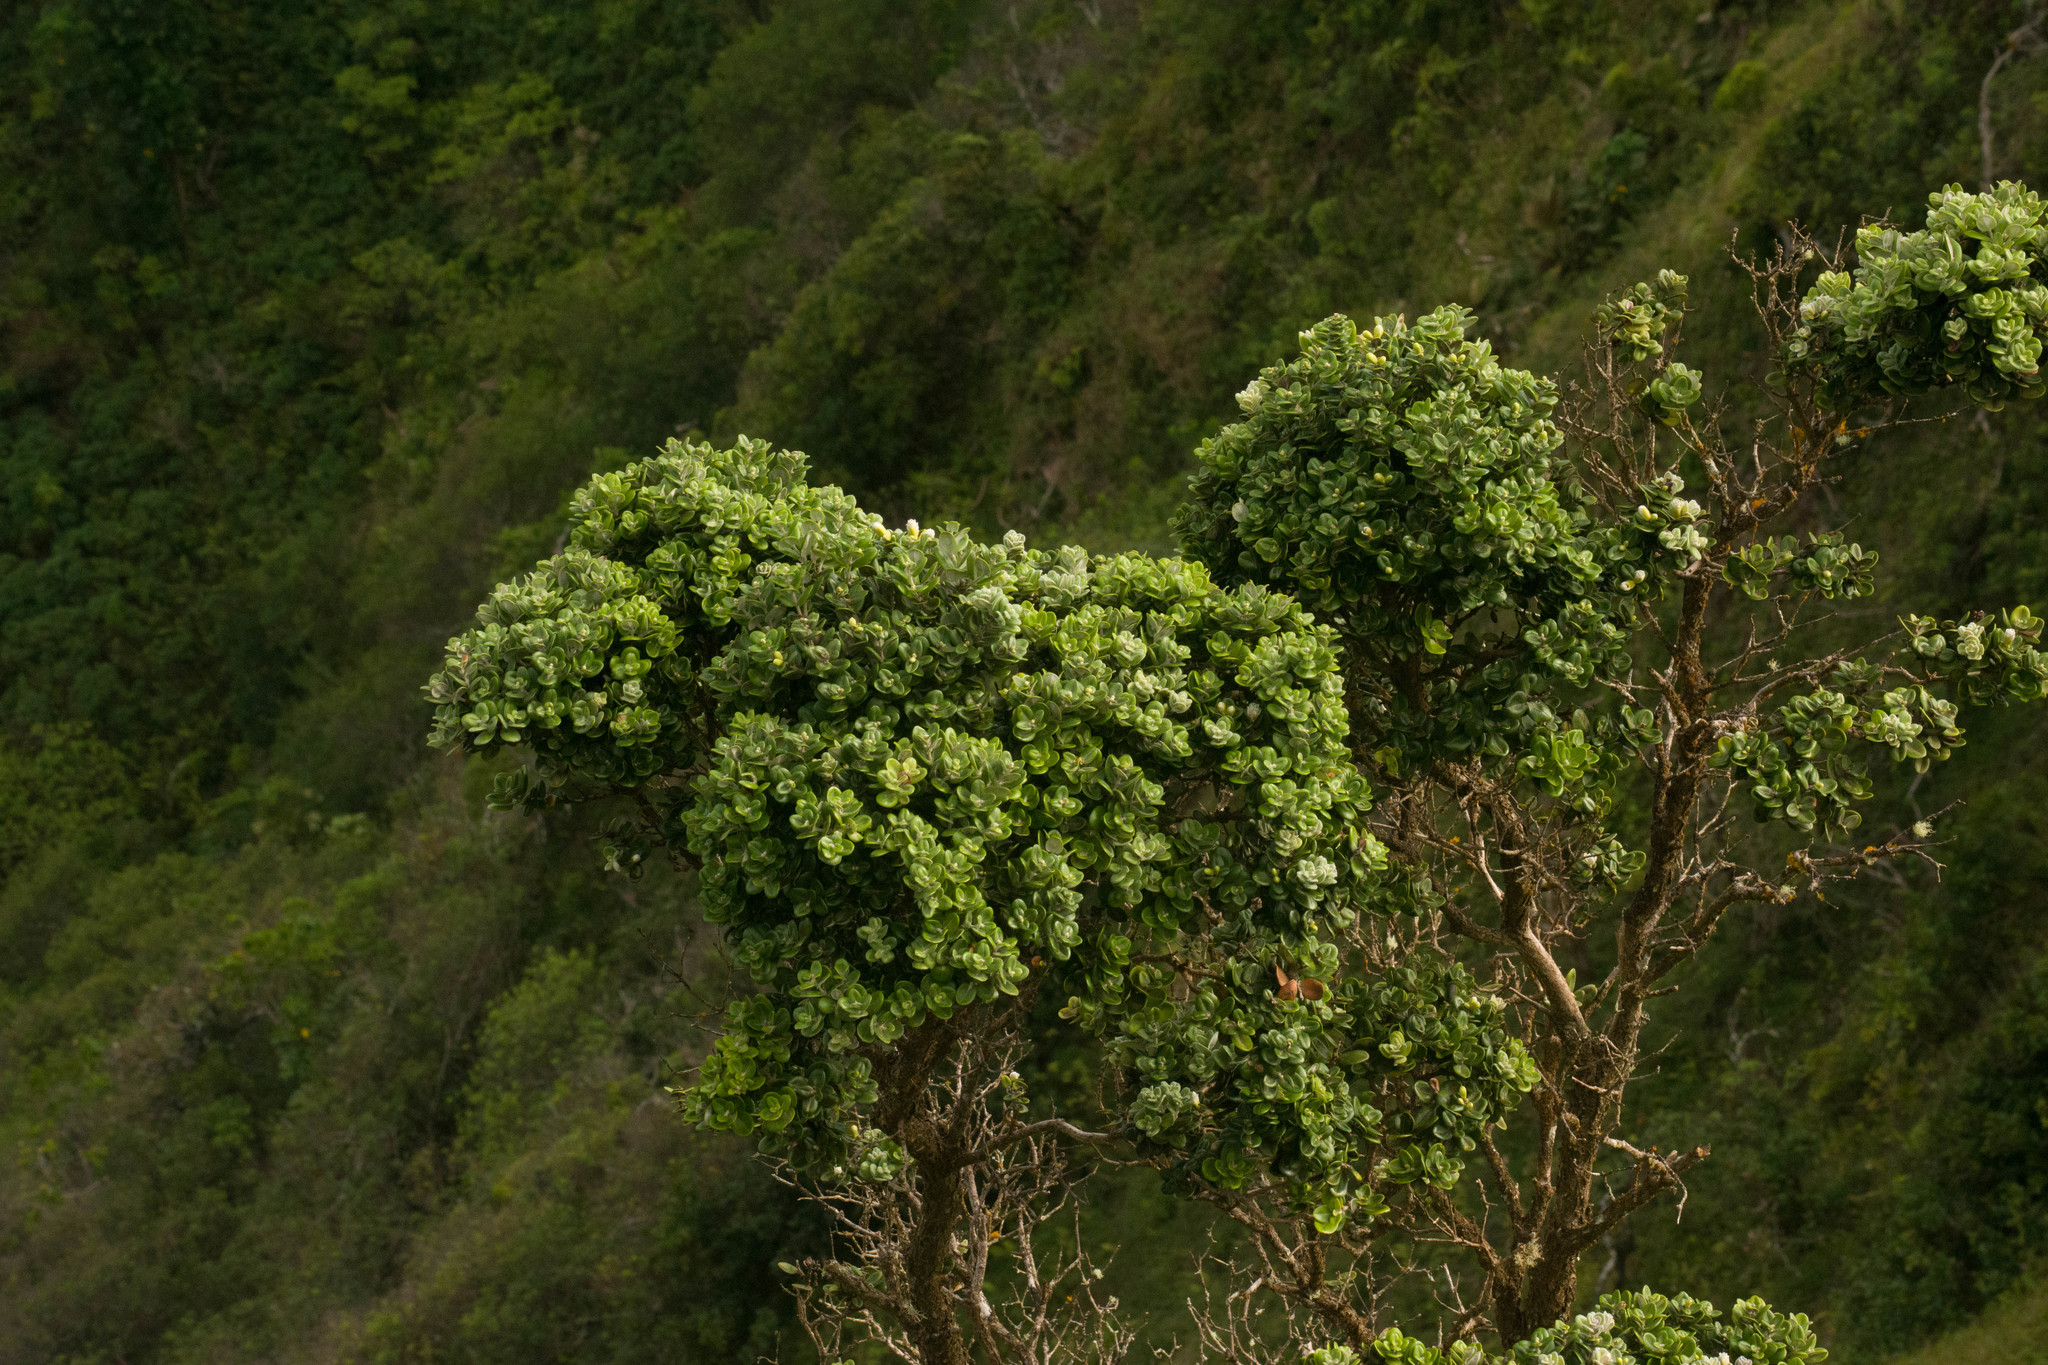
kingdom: Plantae
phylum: Tracheophyta
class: Magnoliopsida
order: Myrtales
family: Myrtaceae
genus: Metrosideros
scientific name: Metrosideros polymorpha
